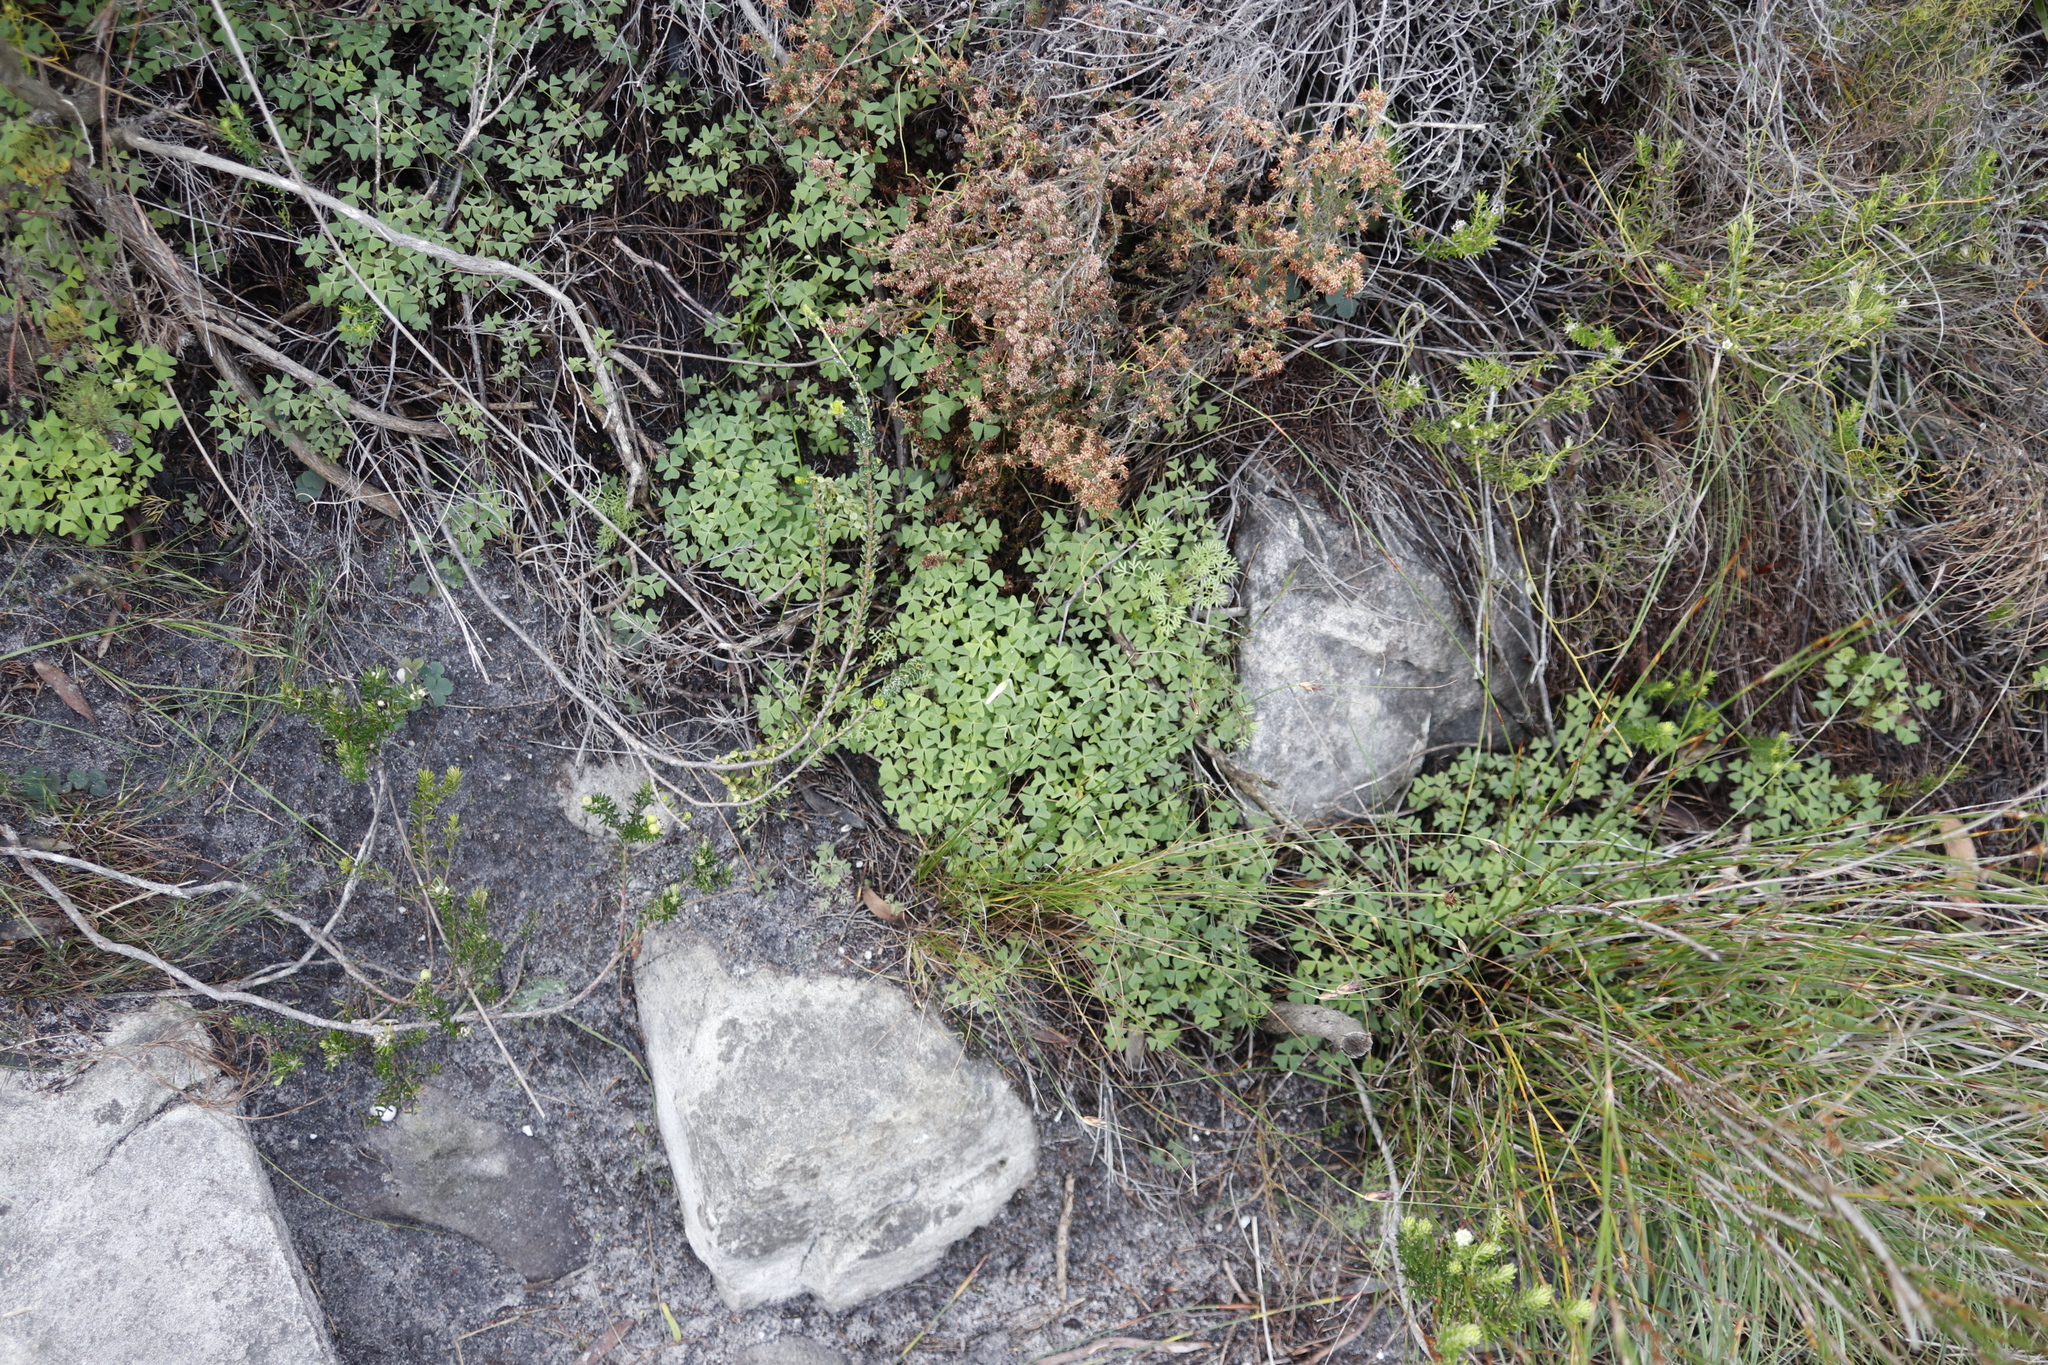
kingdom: Plantae
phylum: Tracheophyta
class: Magnoliopsida
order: Oxalidales
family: Oxalidaceae
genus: Oxalis
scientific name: Oxalis lanata
